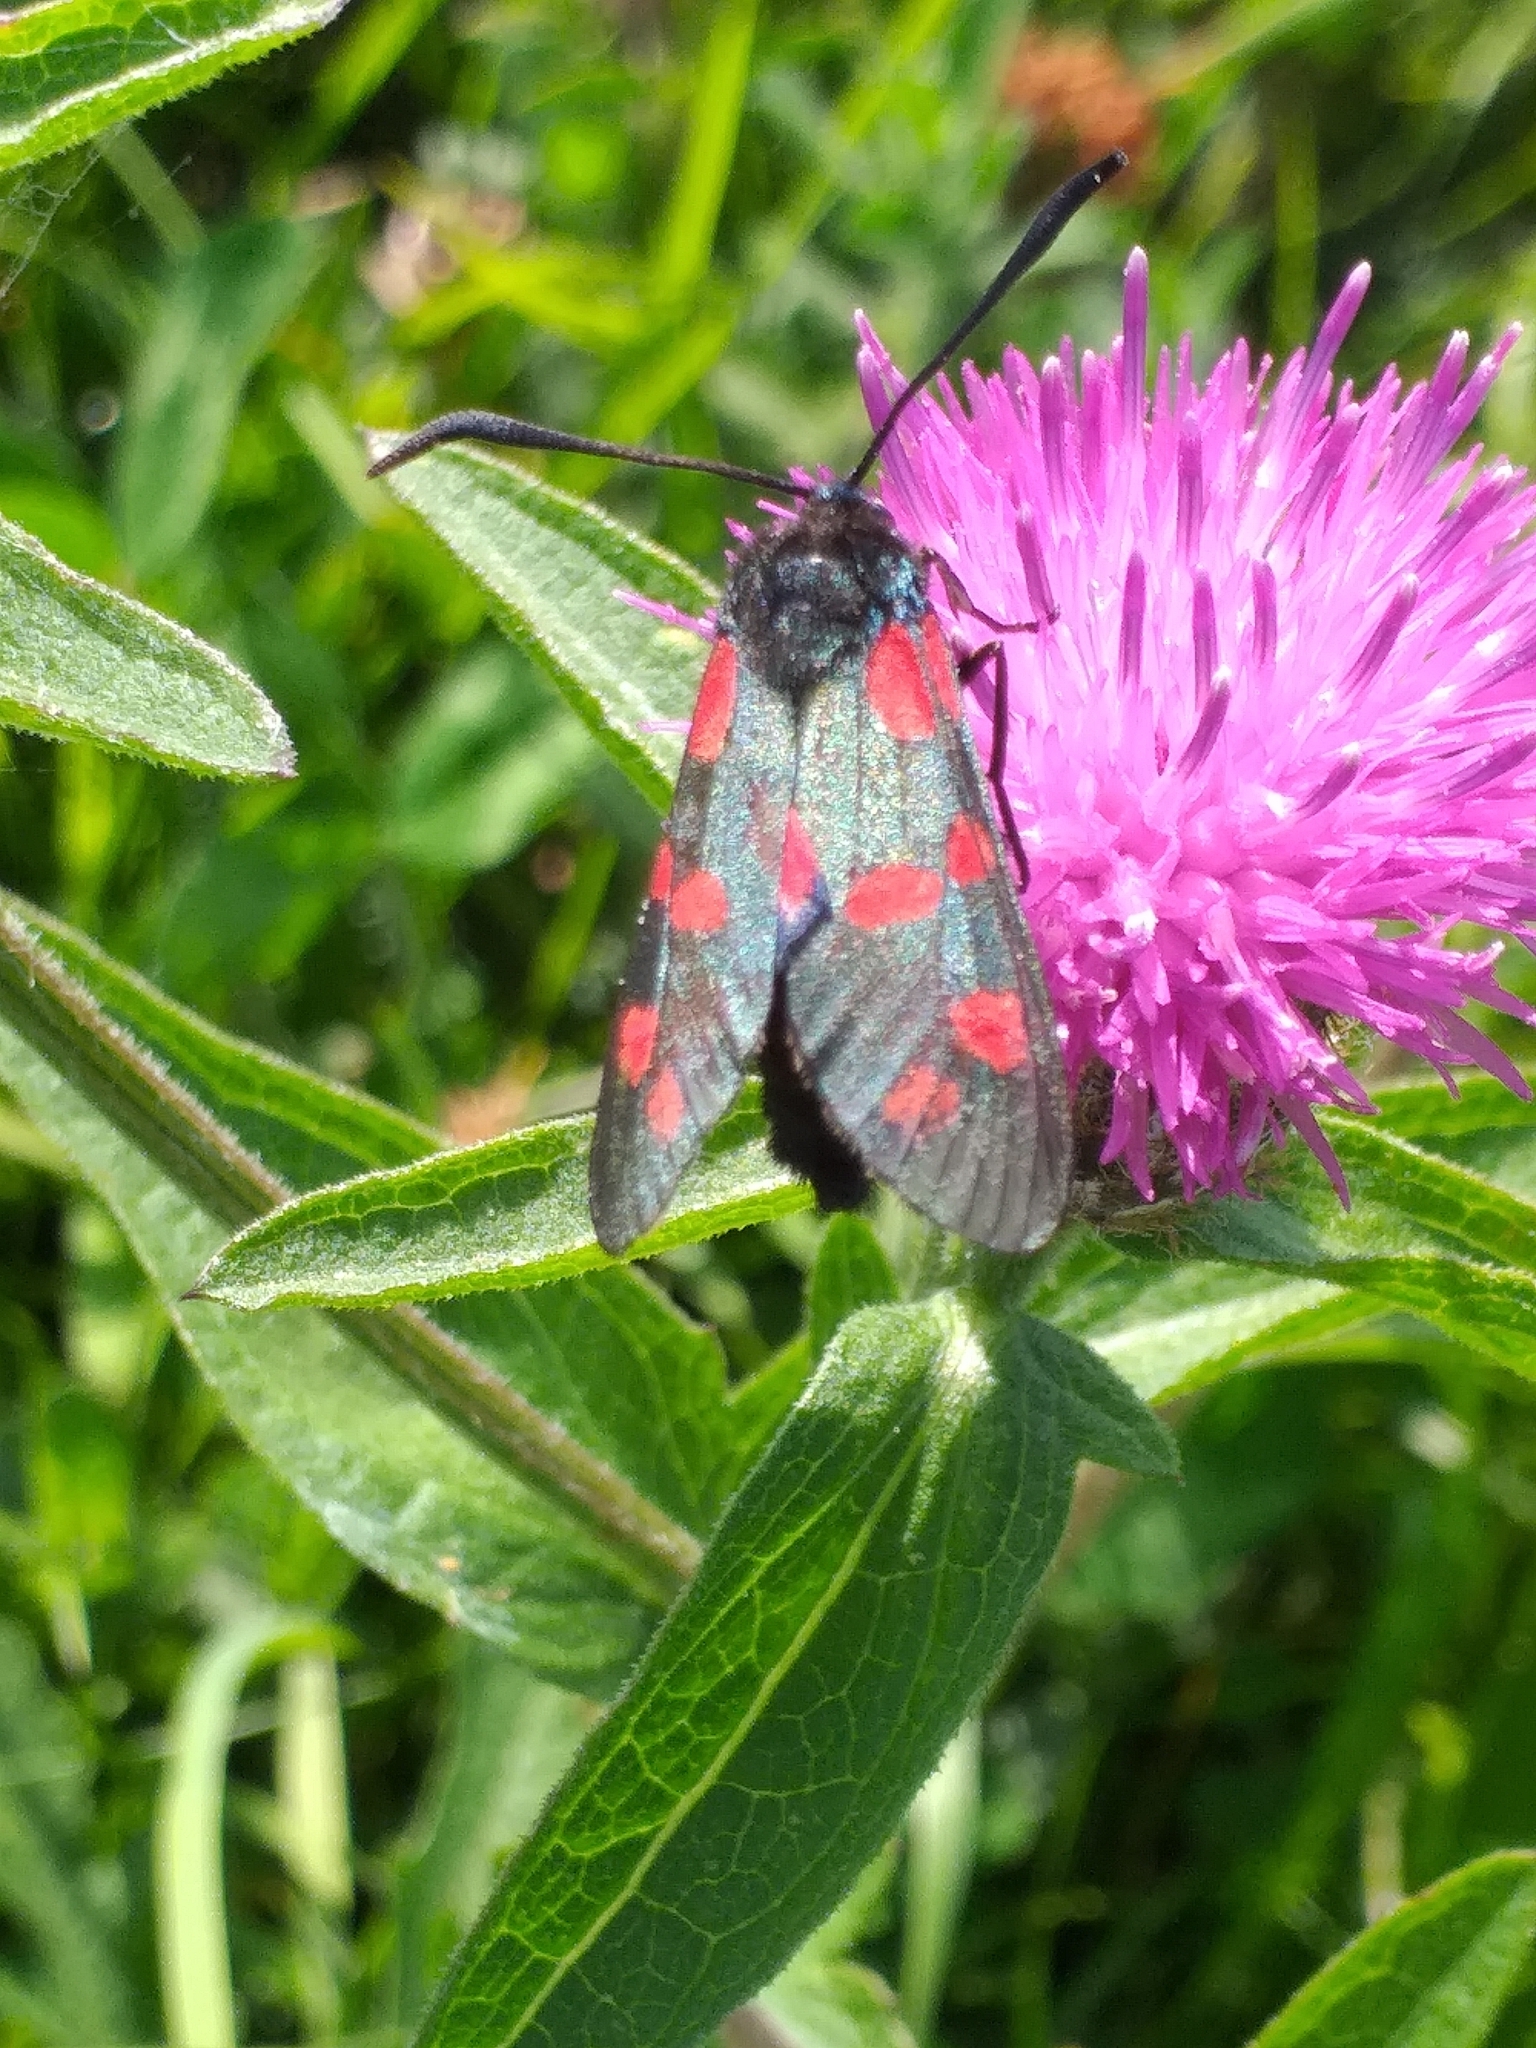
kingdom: Animalia
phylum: Arthropoda
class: Insecta
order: Lepidoptera
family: Zygaenidae
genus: Zygaena
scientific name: Zygaena filipendulae
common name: Six-spot burnet
